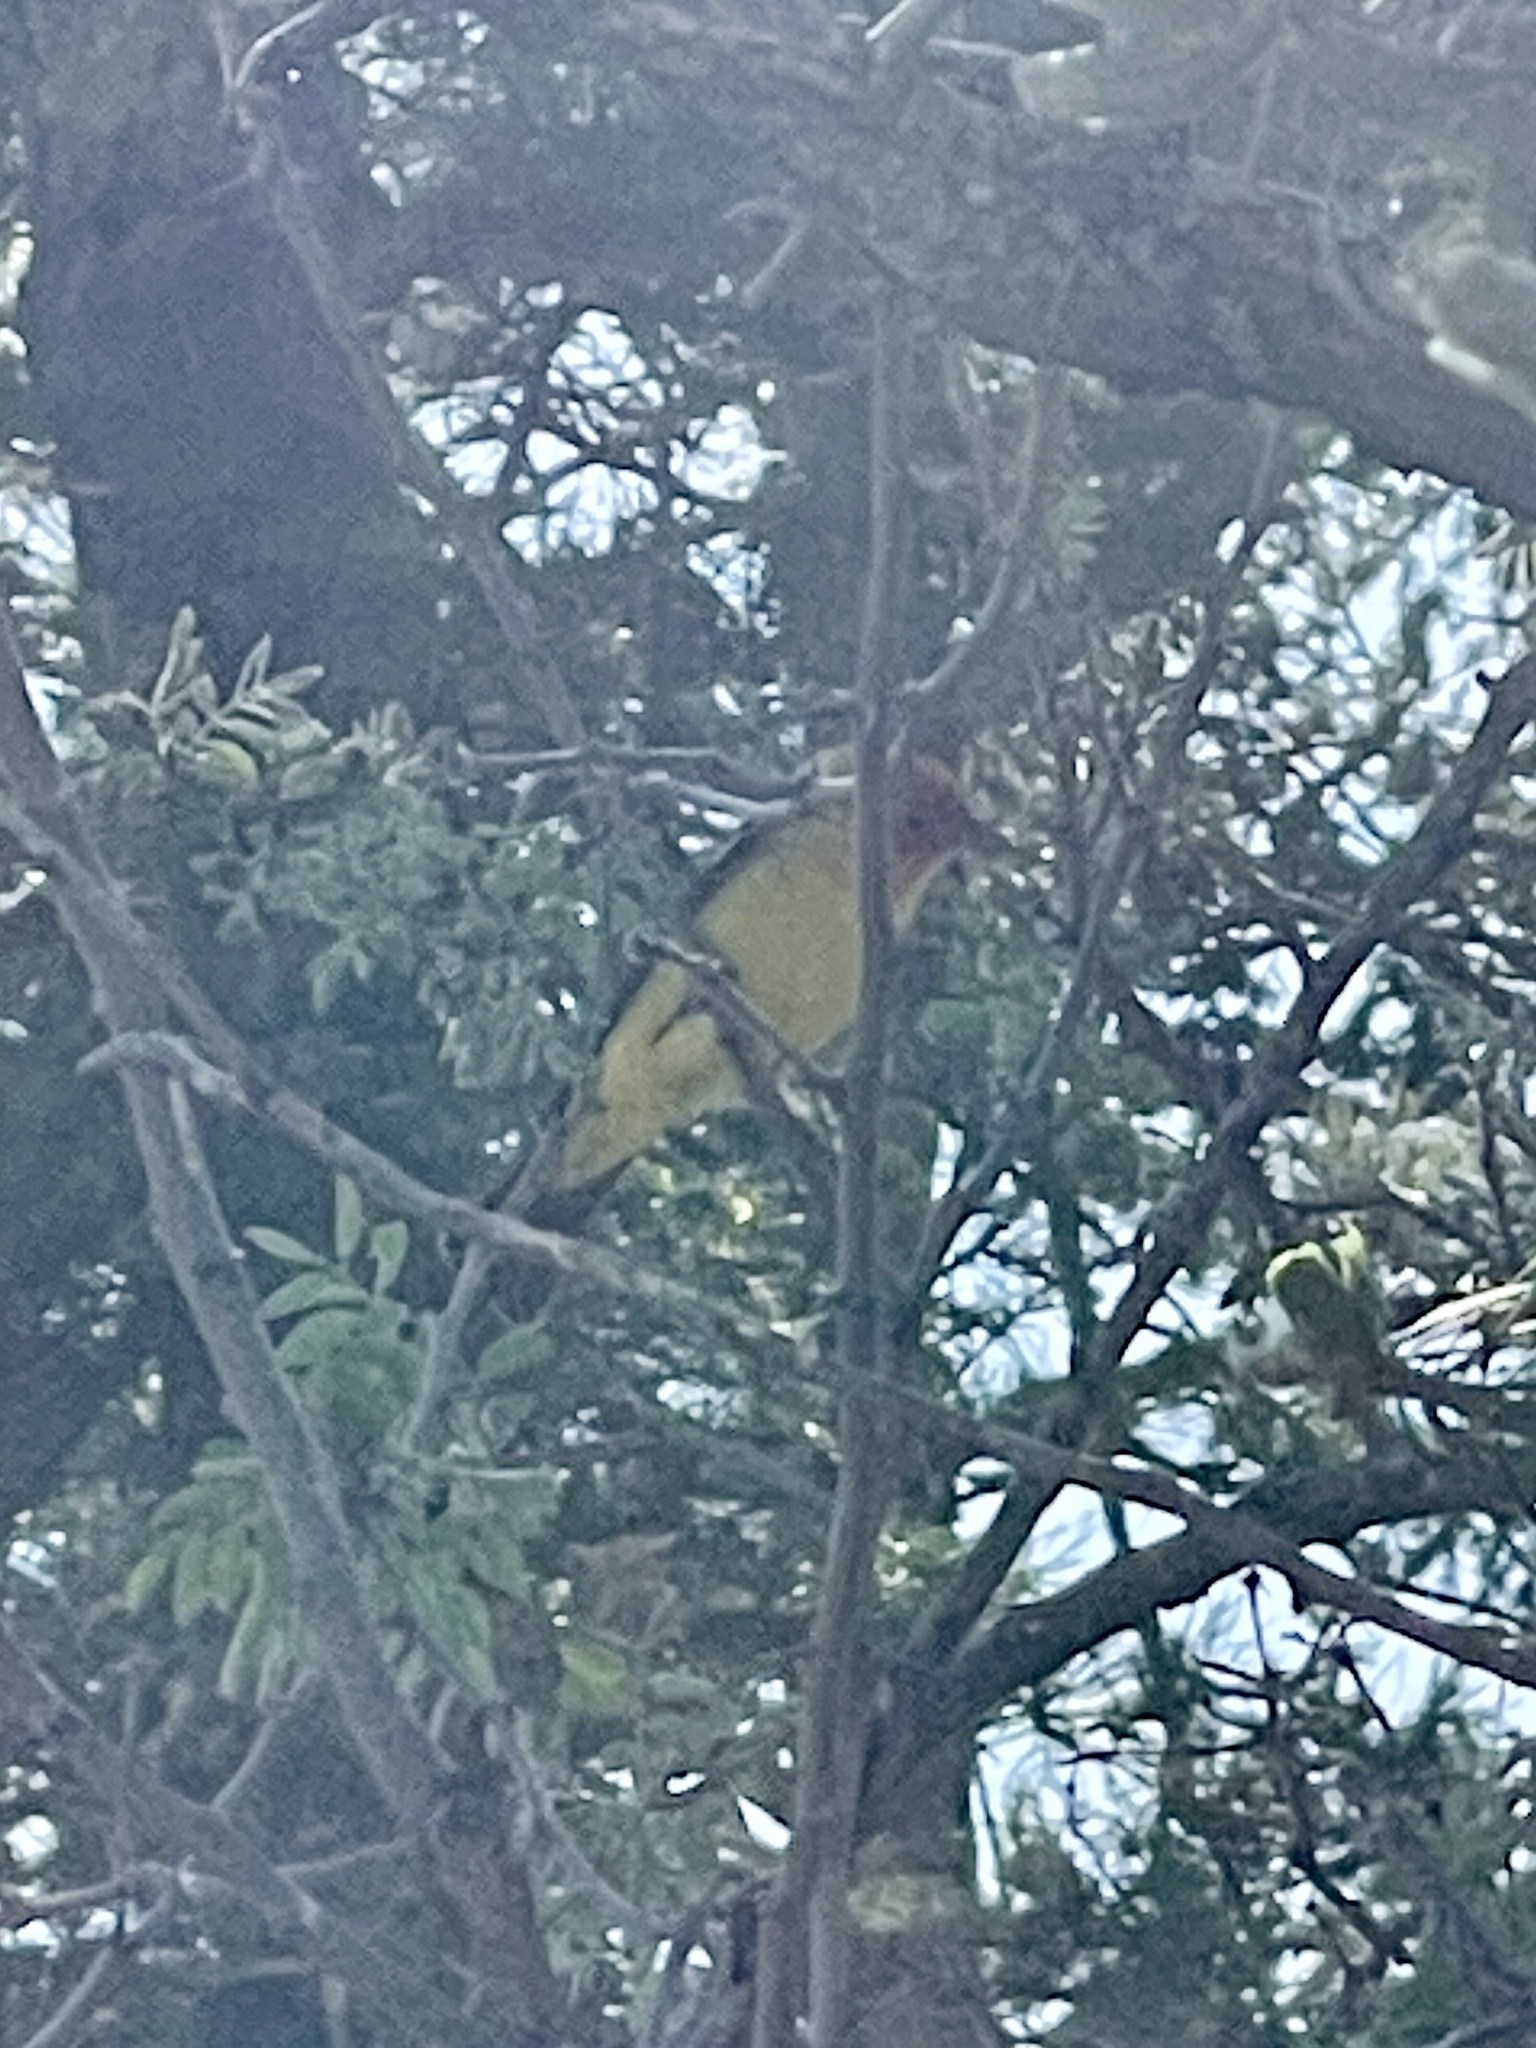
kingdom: Animalia
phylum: Chordata
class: Aves
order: Passeriformes
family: Cardinalidae
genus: Piranga
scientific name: Piranga ludoviciana
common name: Western tanager
